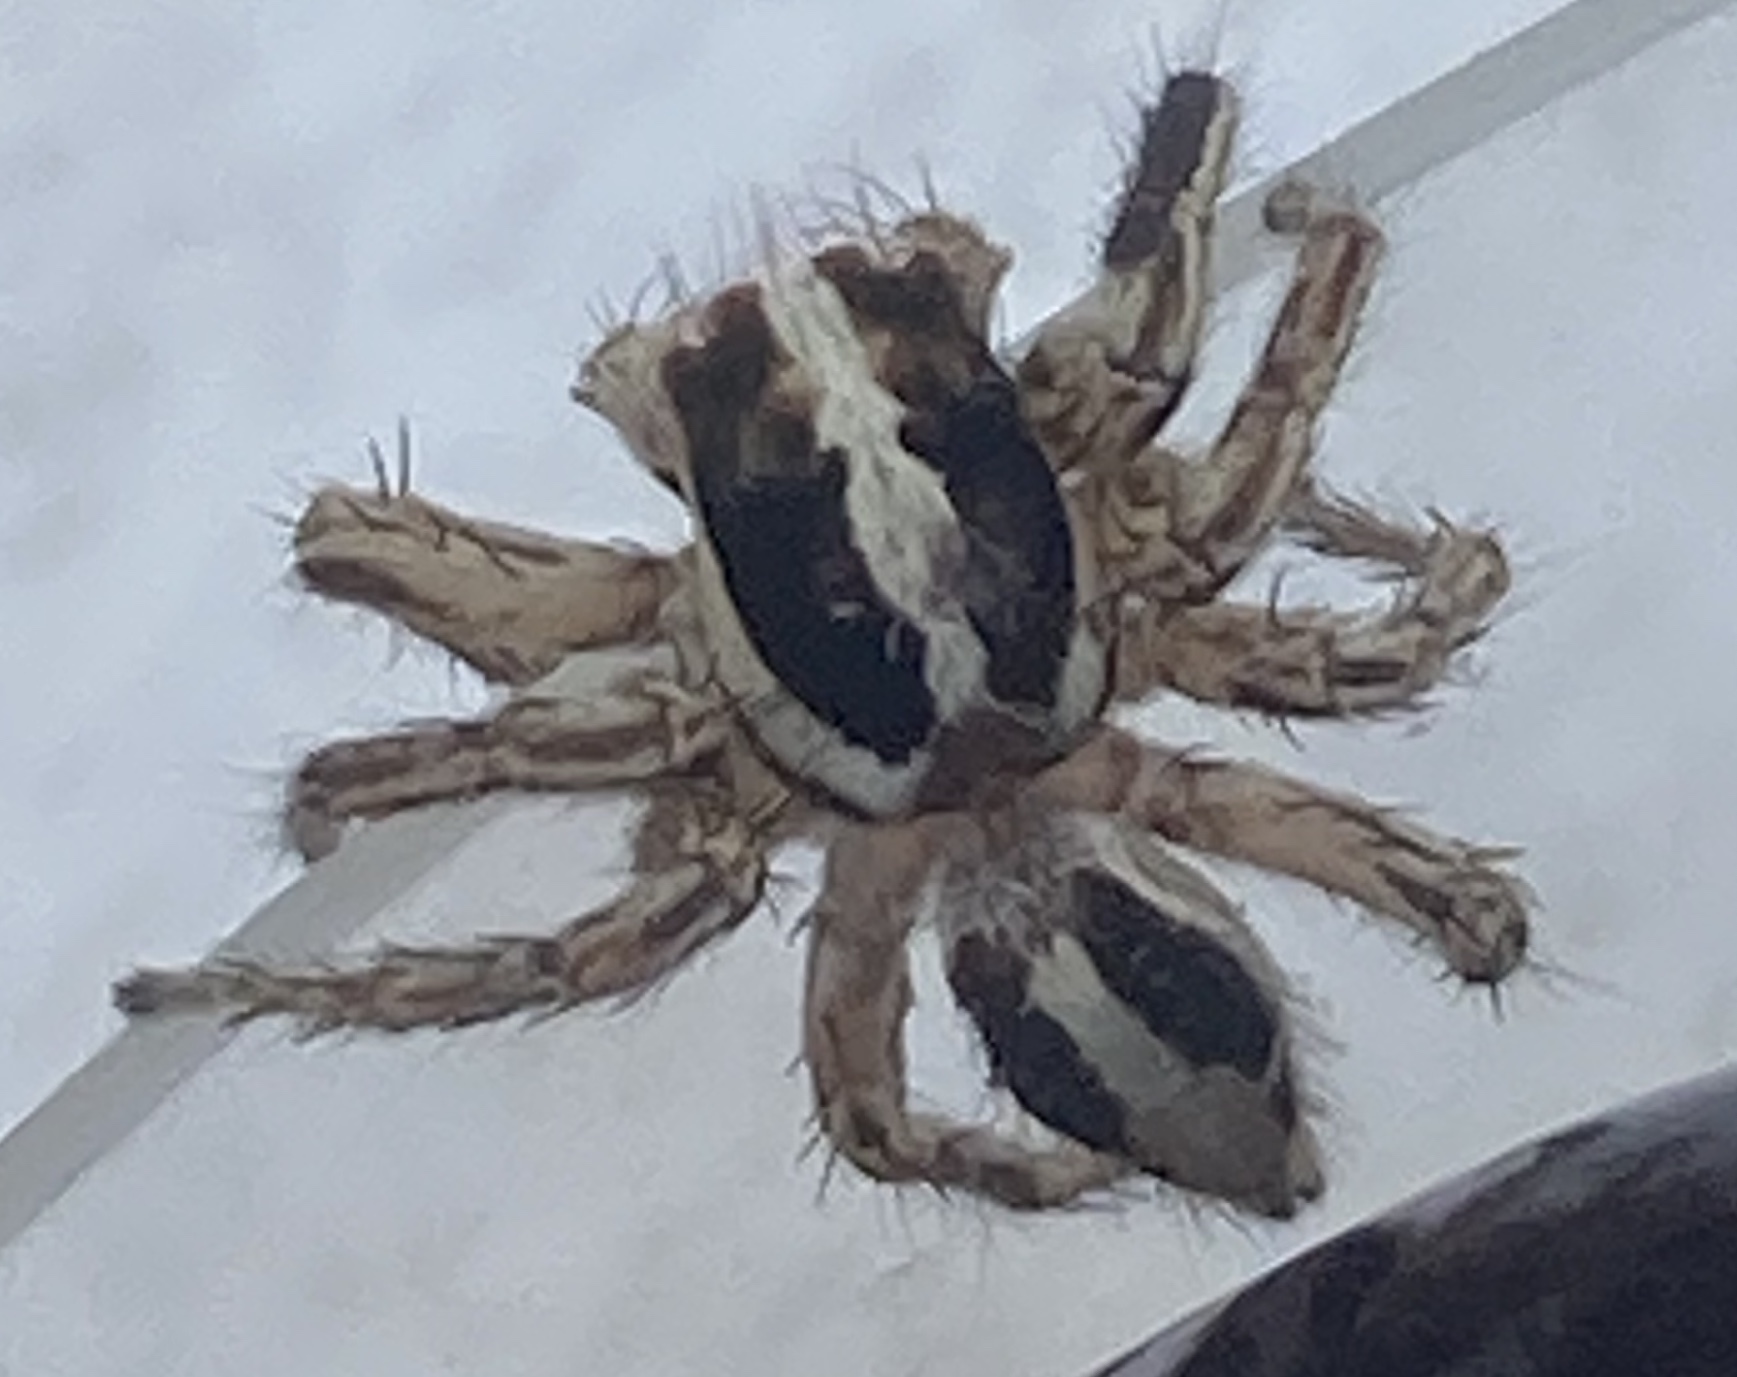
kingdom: Animalia
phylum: Arthropoda
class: Arachnida
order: Araneae
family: Salticidae
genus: Plexippus
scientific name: Plexippus paykulli
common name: Pantropical jumper
